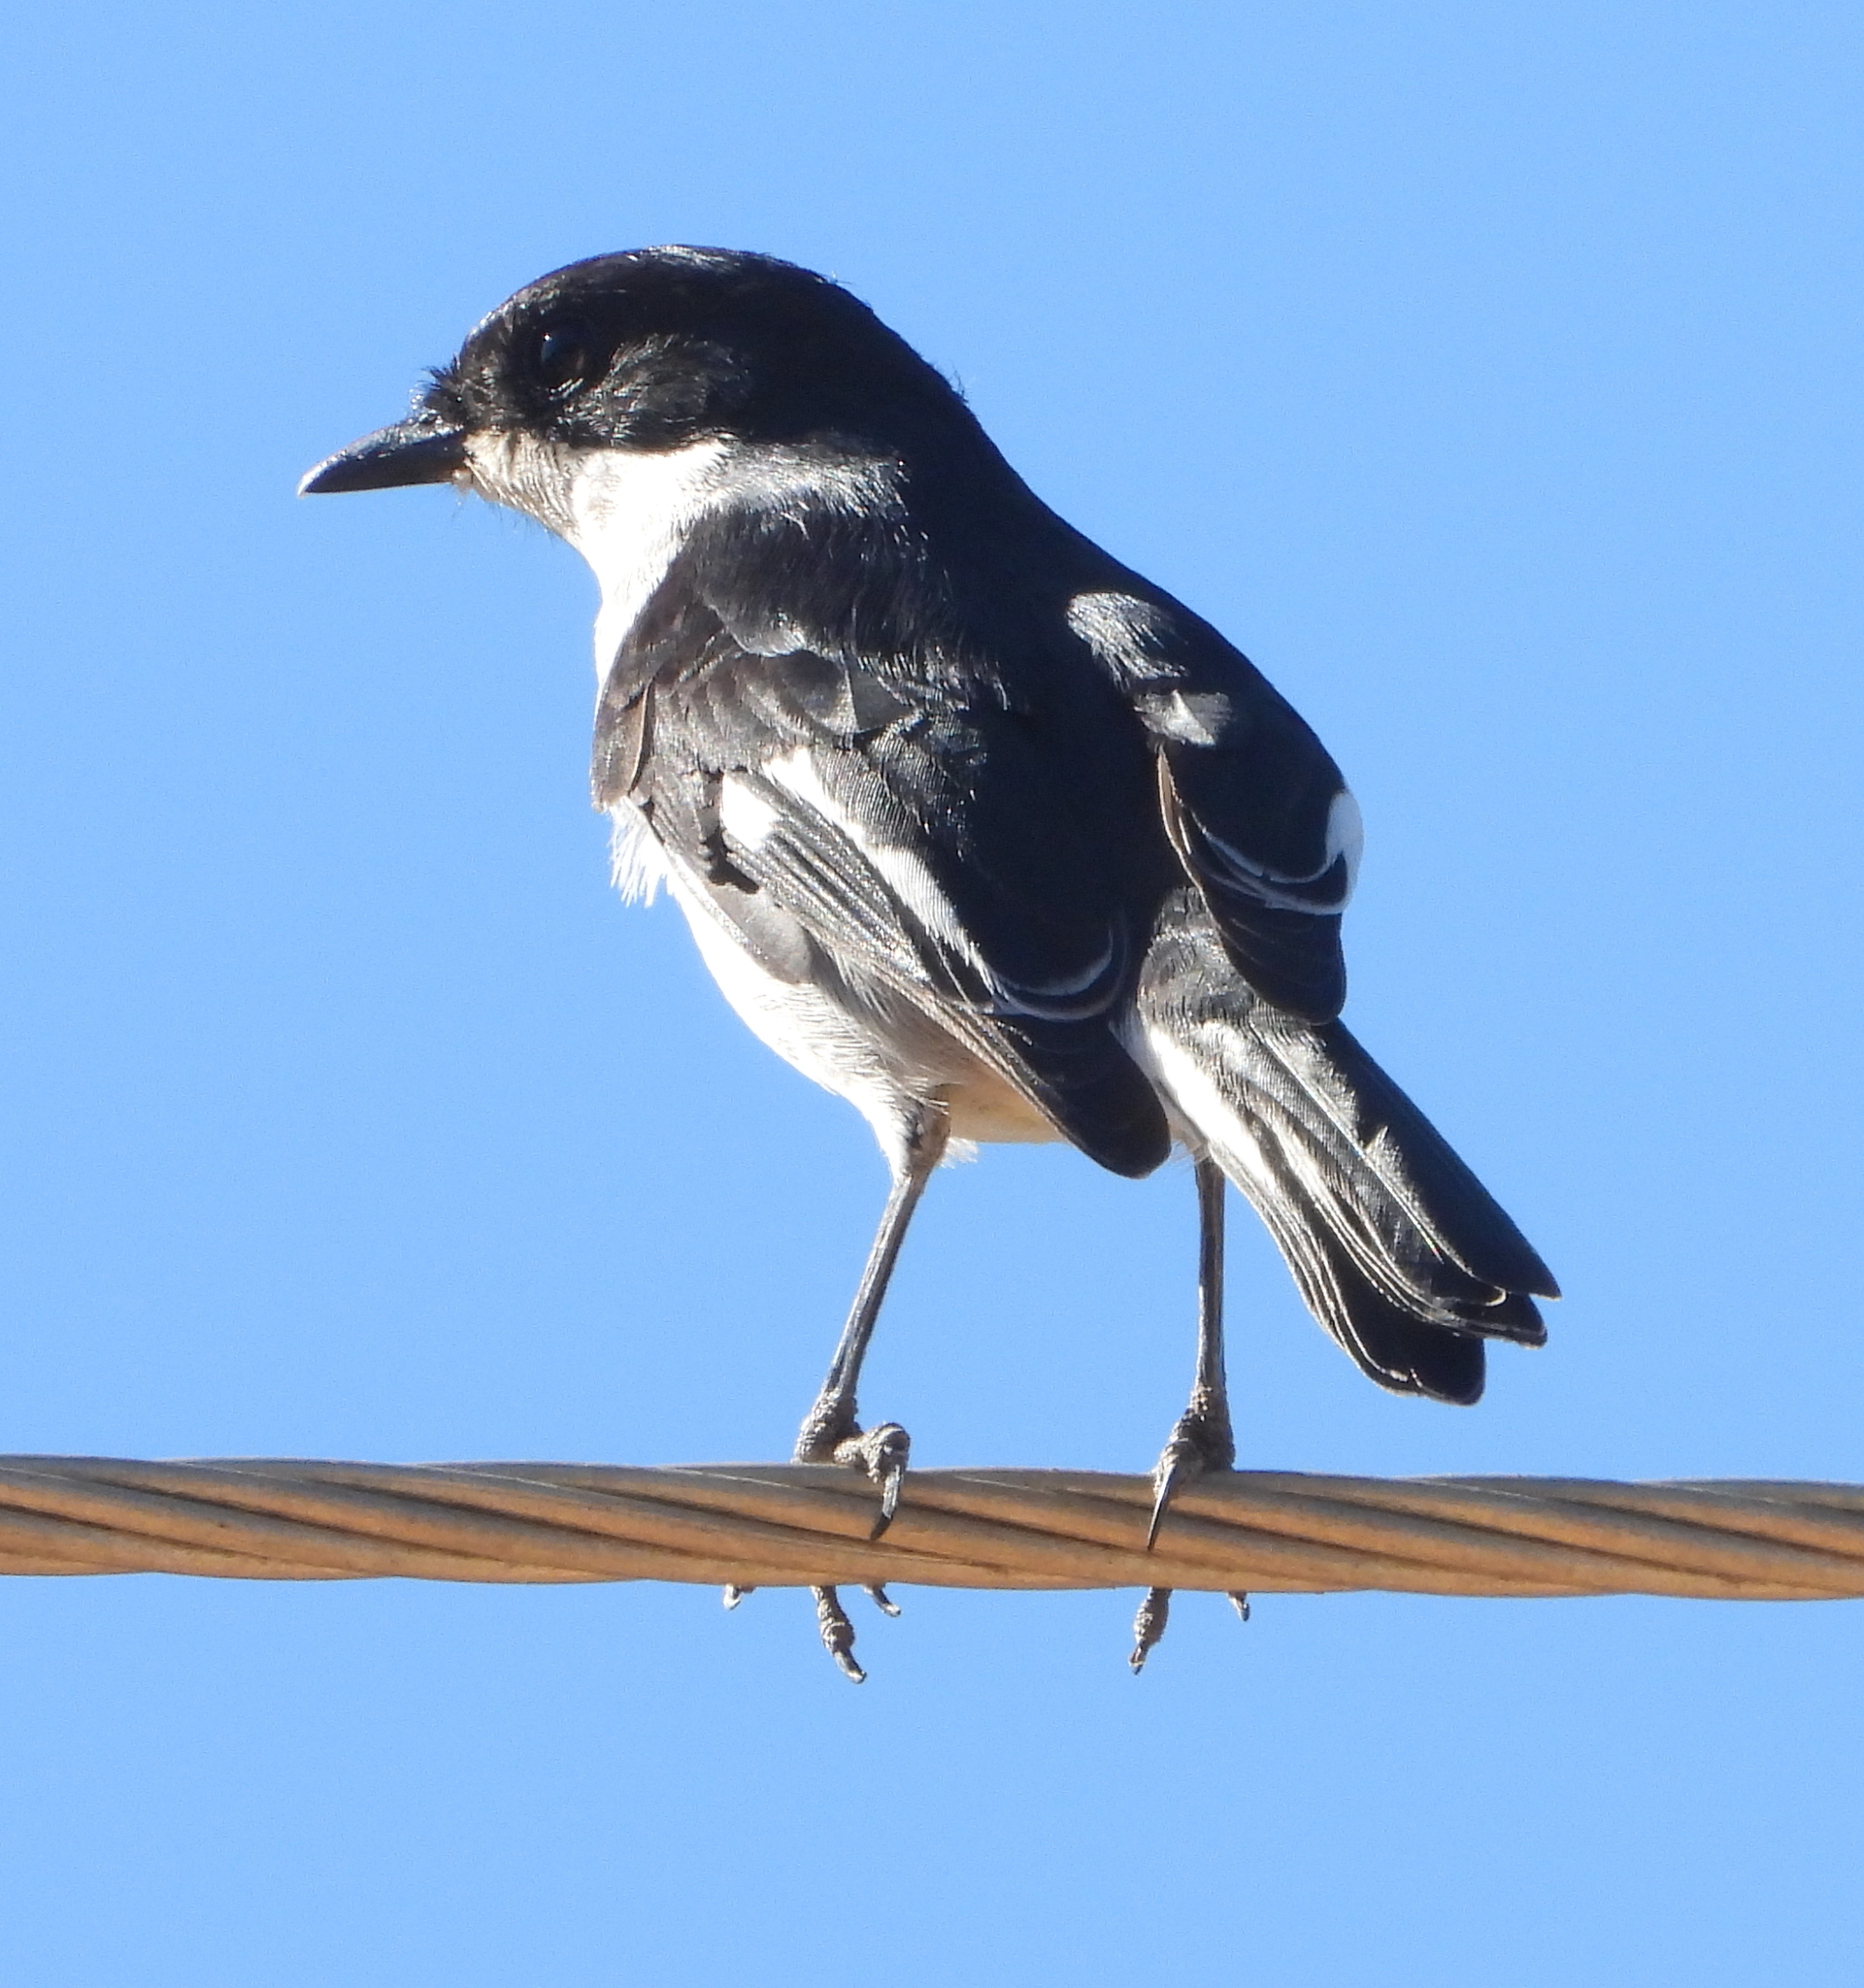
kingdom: Animalia
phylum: Chordata
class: Aves
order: Passeriformes
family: Muscicapidae
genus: Sigelus
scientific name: Sigelus silens
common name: Fiscal flycatcher
